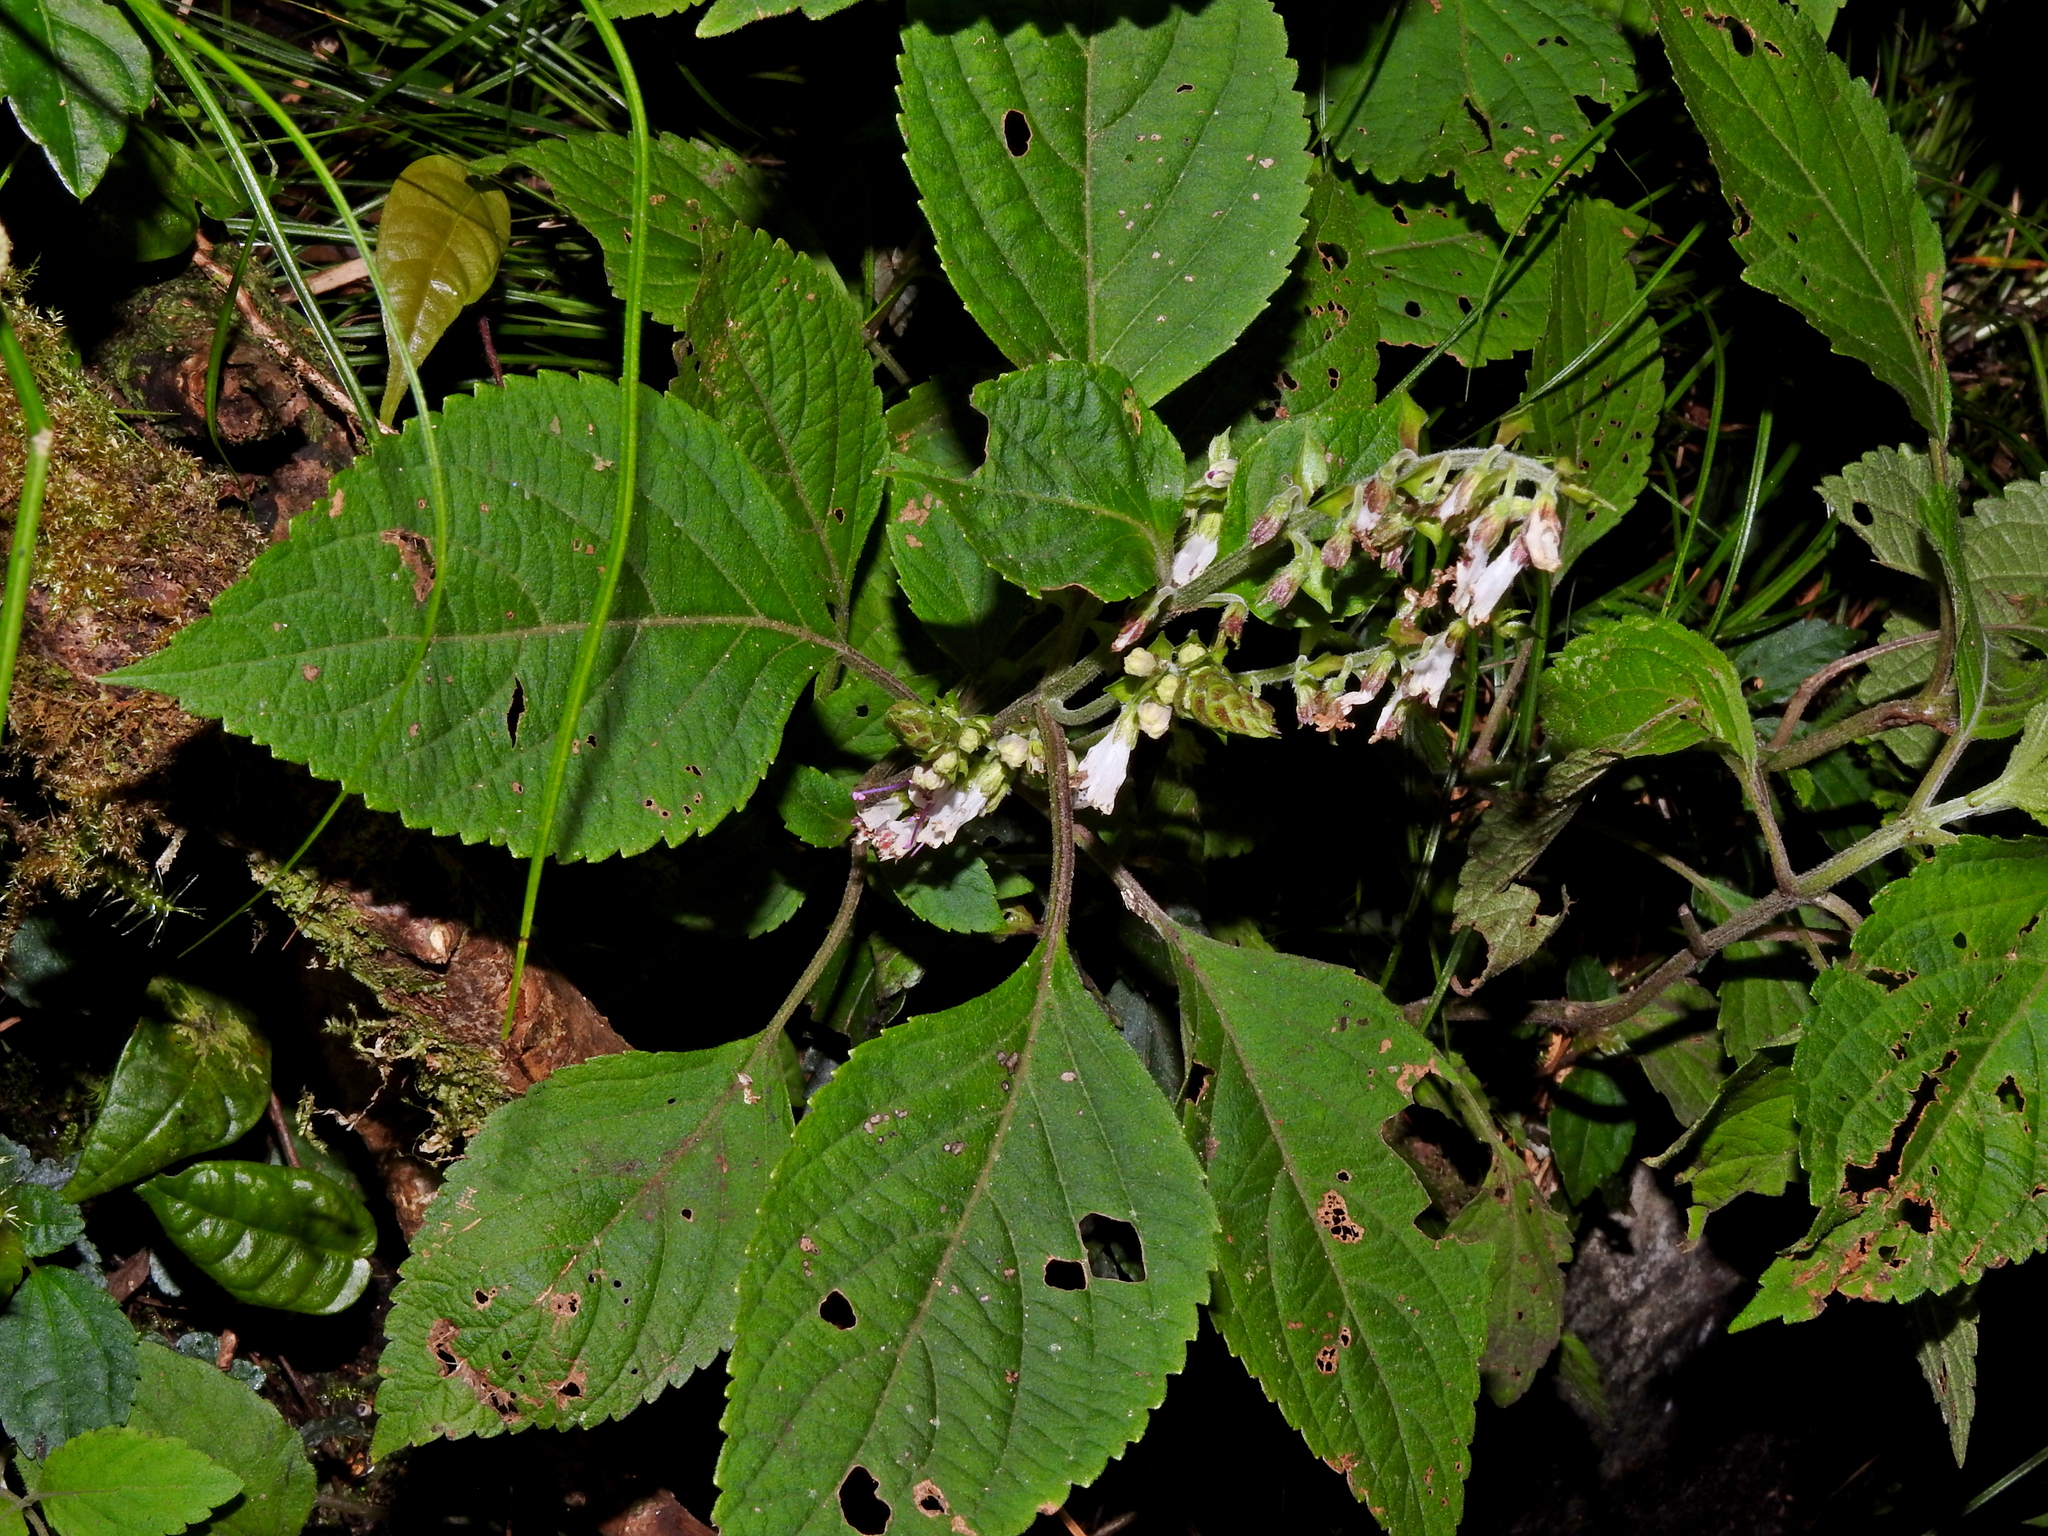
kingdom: Plantae
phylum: Tracheophyta
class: Magnoliopsida
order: Lamiales
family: Lamiaceae
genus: Collinsonia
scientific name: Collinsonia macrobracteata
